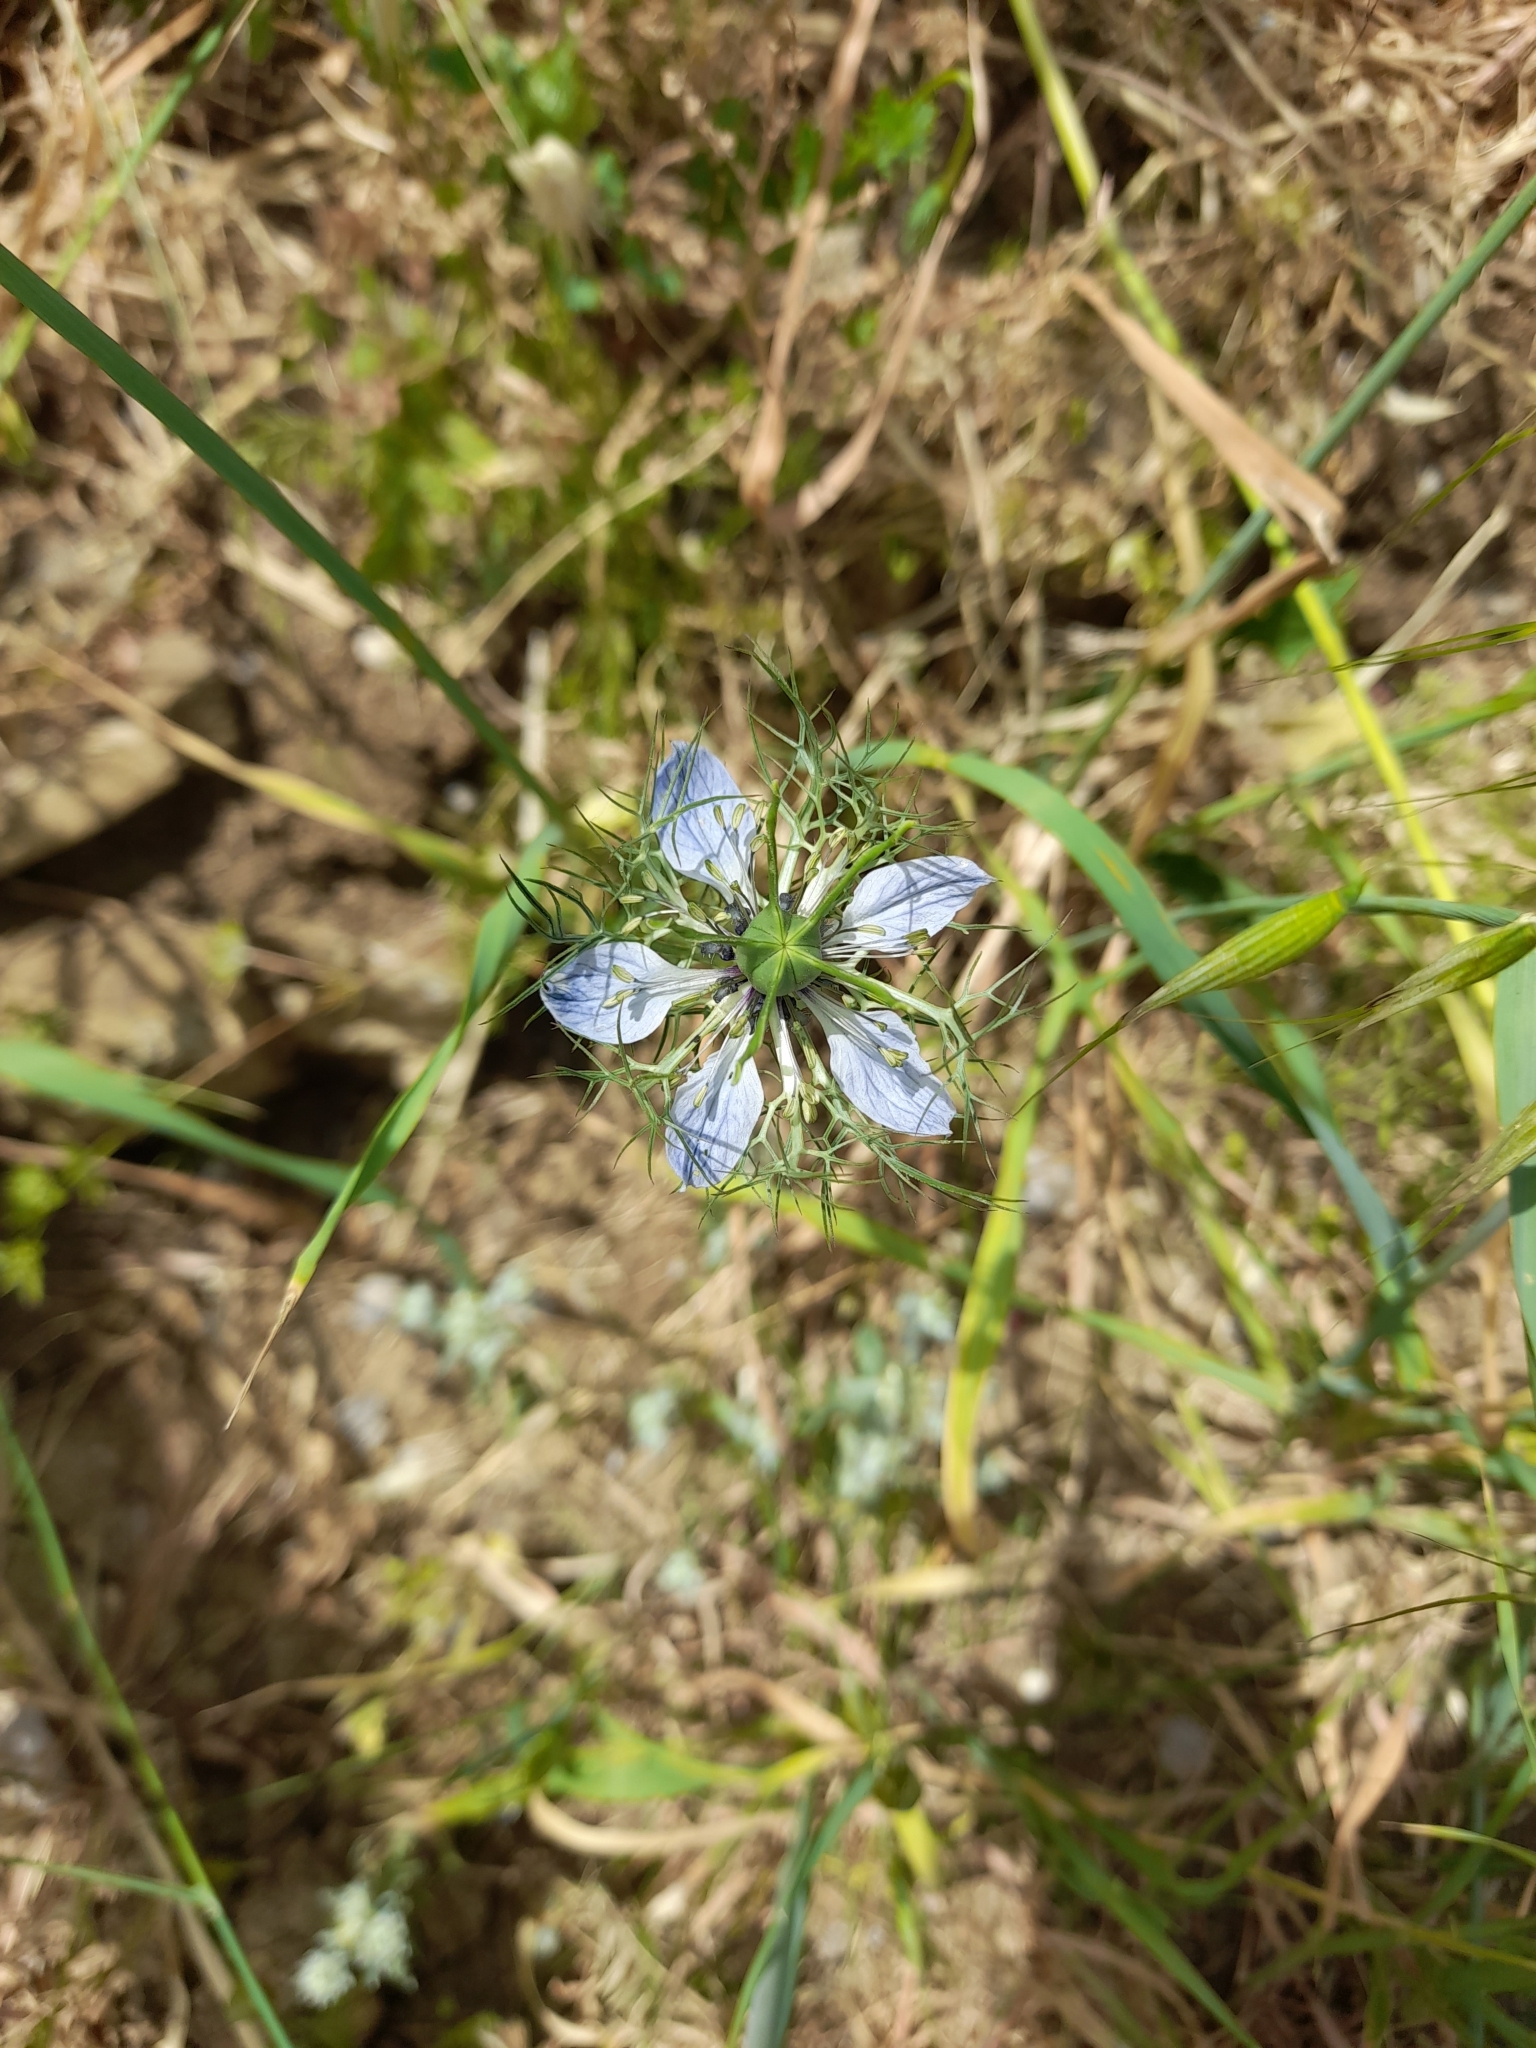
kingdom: Plantae
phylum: Tracheophyta
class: Magnoliopsida
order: Ranunculales
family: Ranunculaceae
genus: Nigella
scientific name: Nigella damascena
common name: Love-in-a-mist
